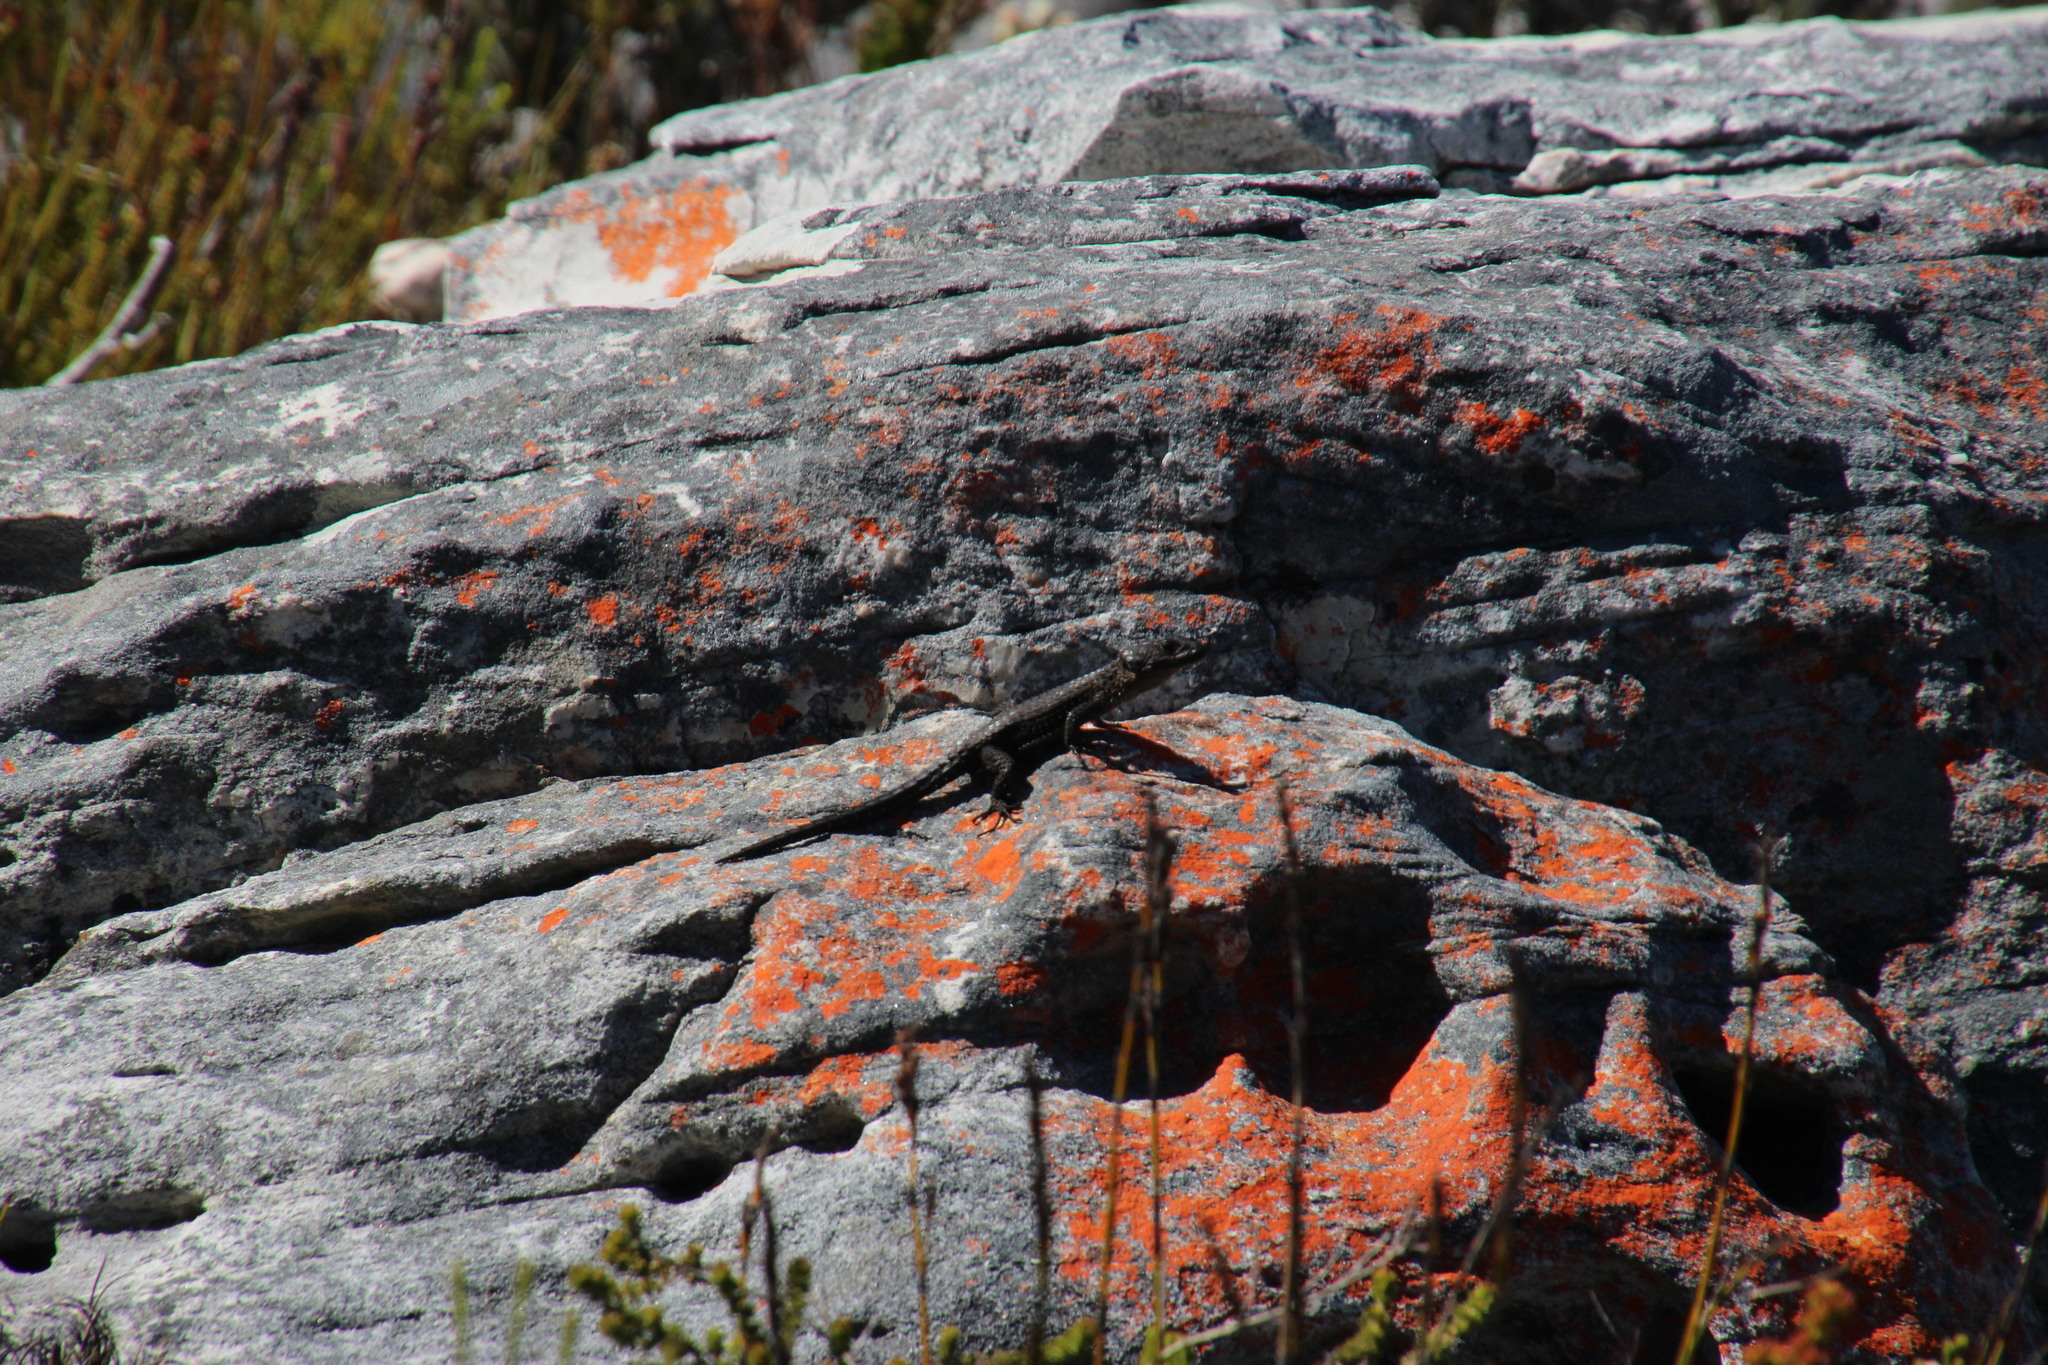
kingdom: Animalia
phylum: Chordata
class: Squamata
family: Cordylidae
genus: Cordylus
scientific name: Cordylus niger
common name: Black girdled lizard
